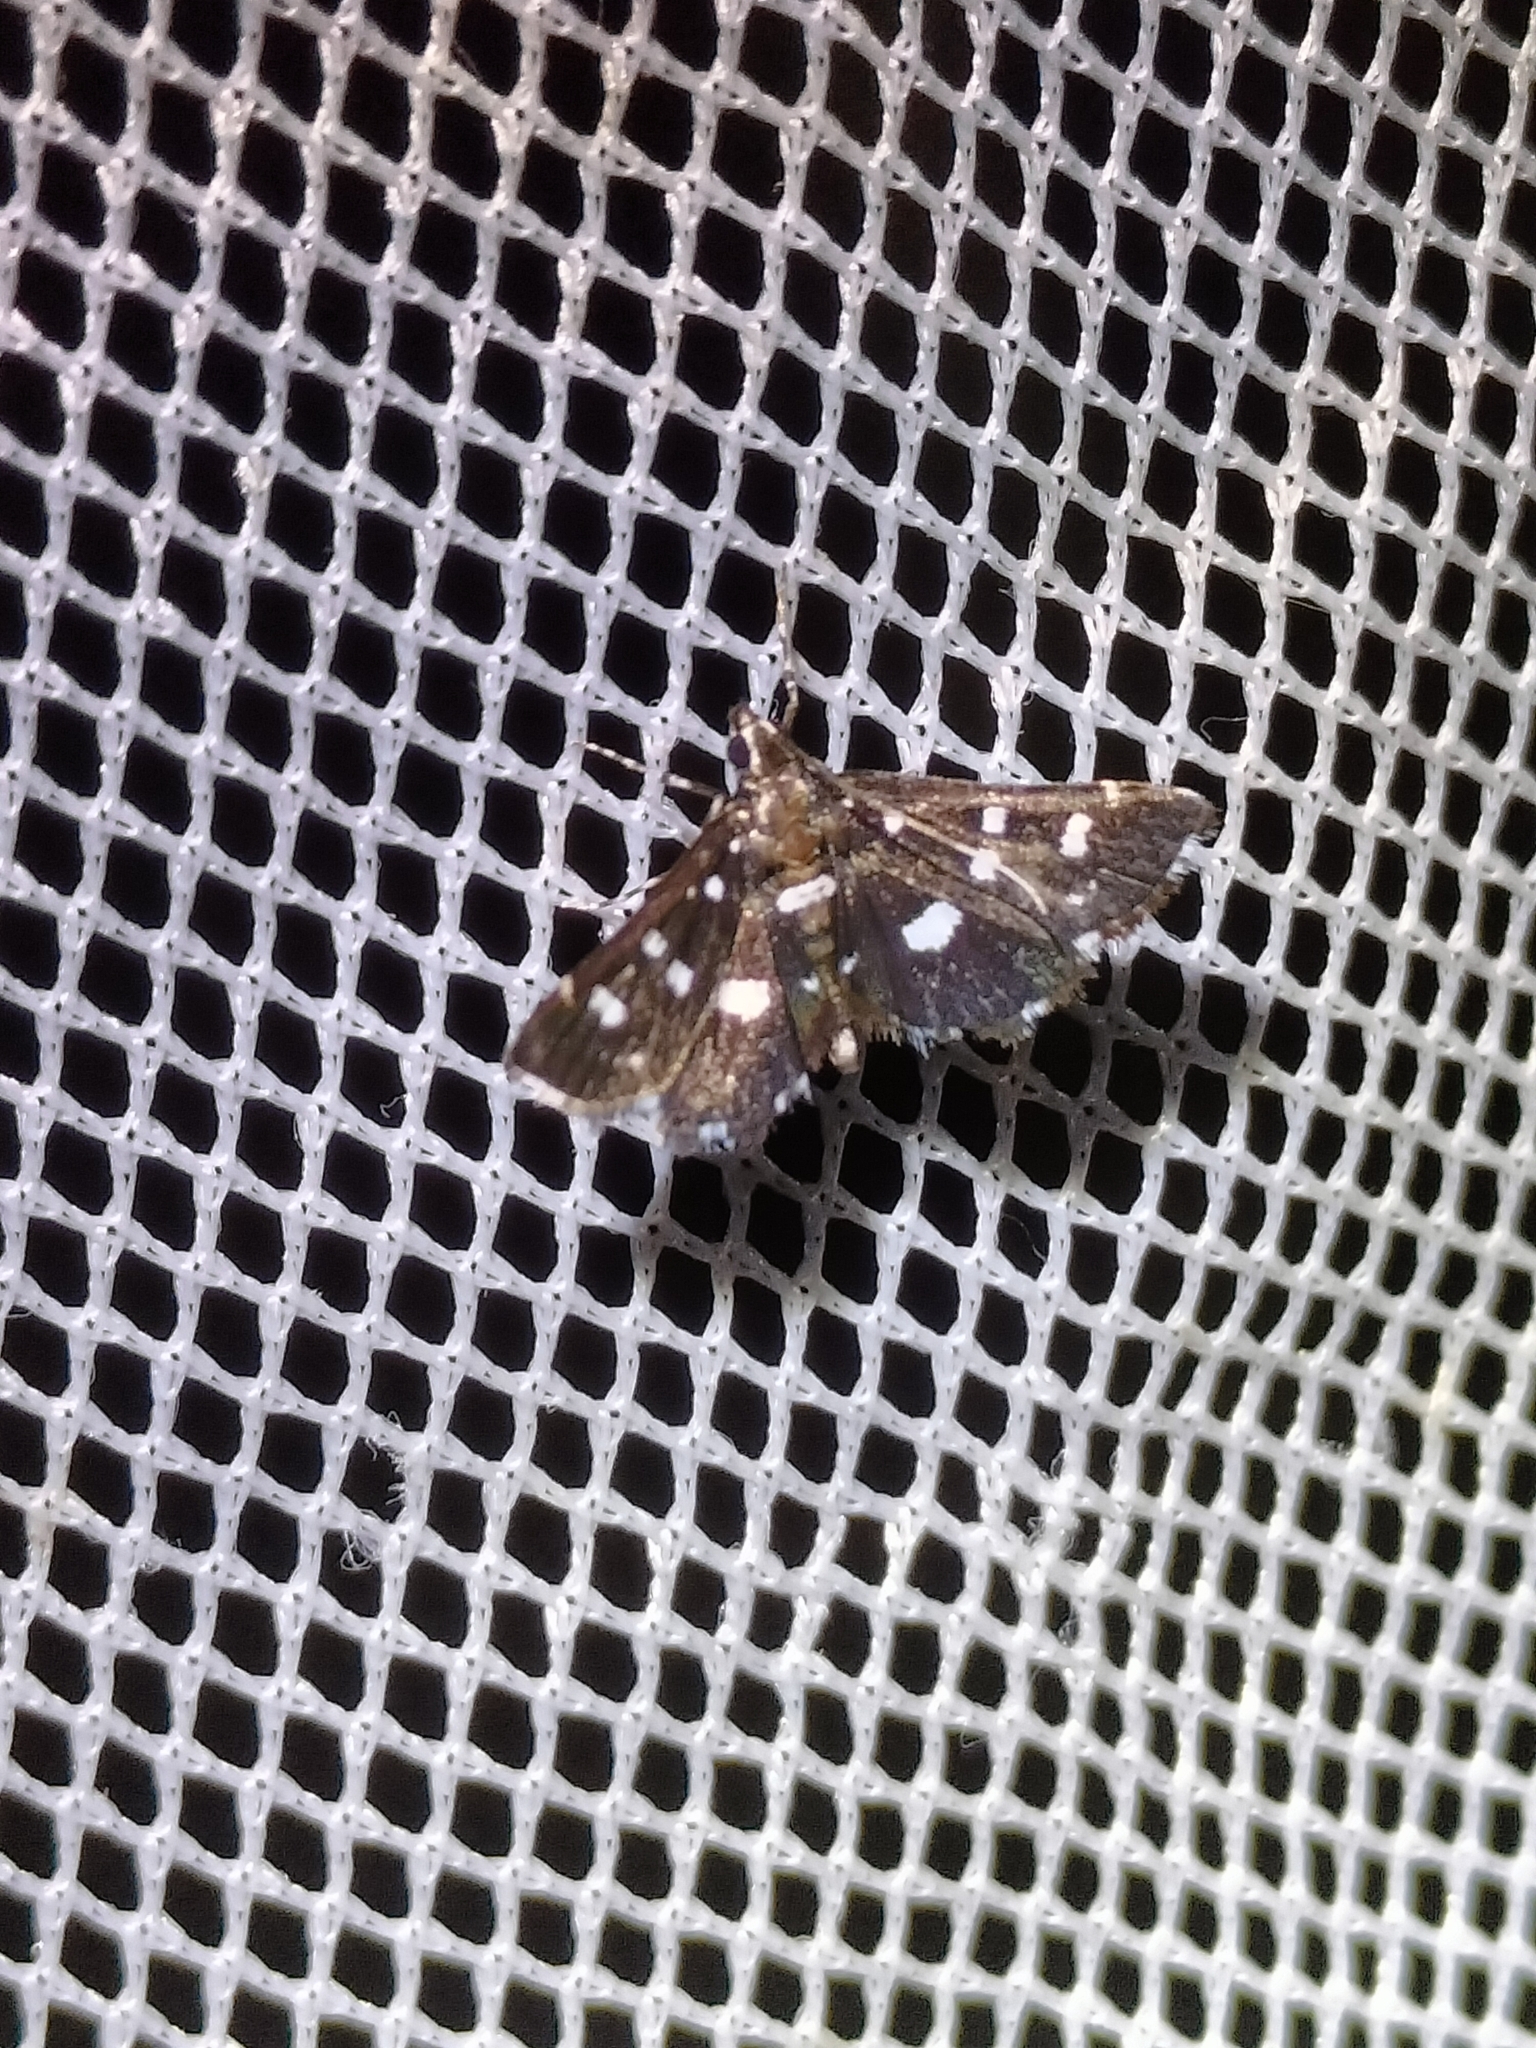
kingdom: Animalia
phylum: Arthropoda
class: Insecta
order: Lepidoptera
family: Crambidae
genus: Metasia
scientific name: Metasia zinckenialis
